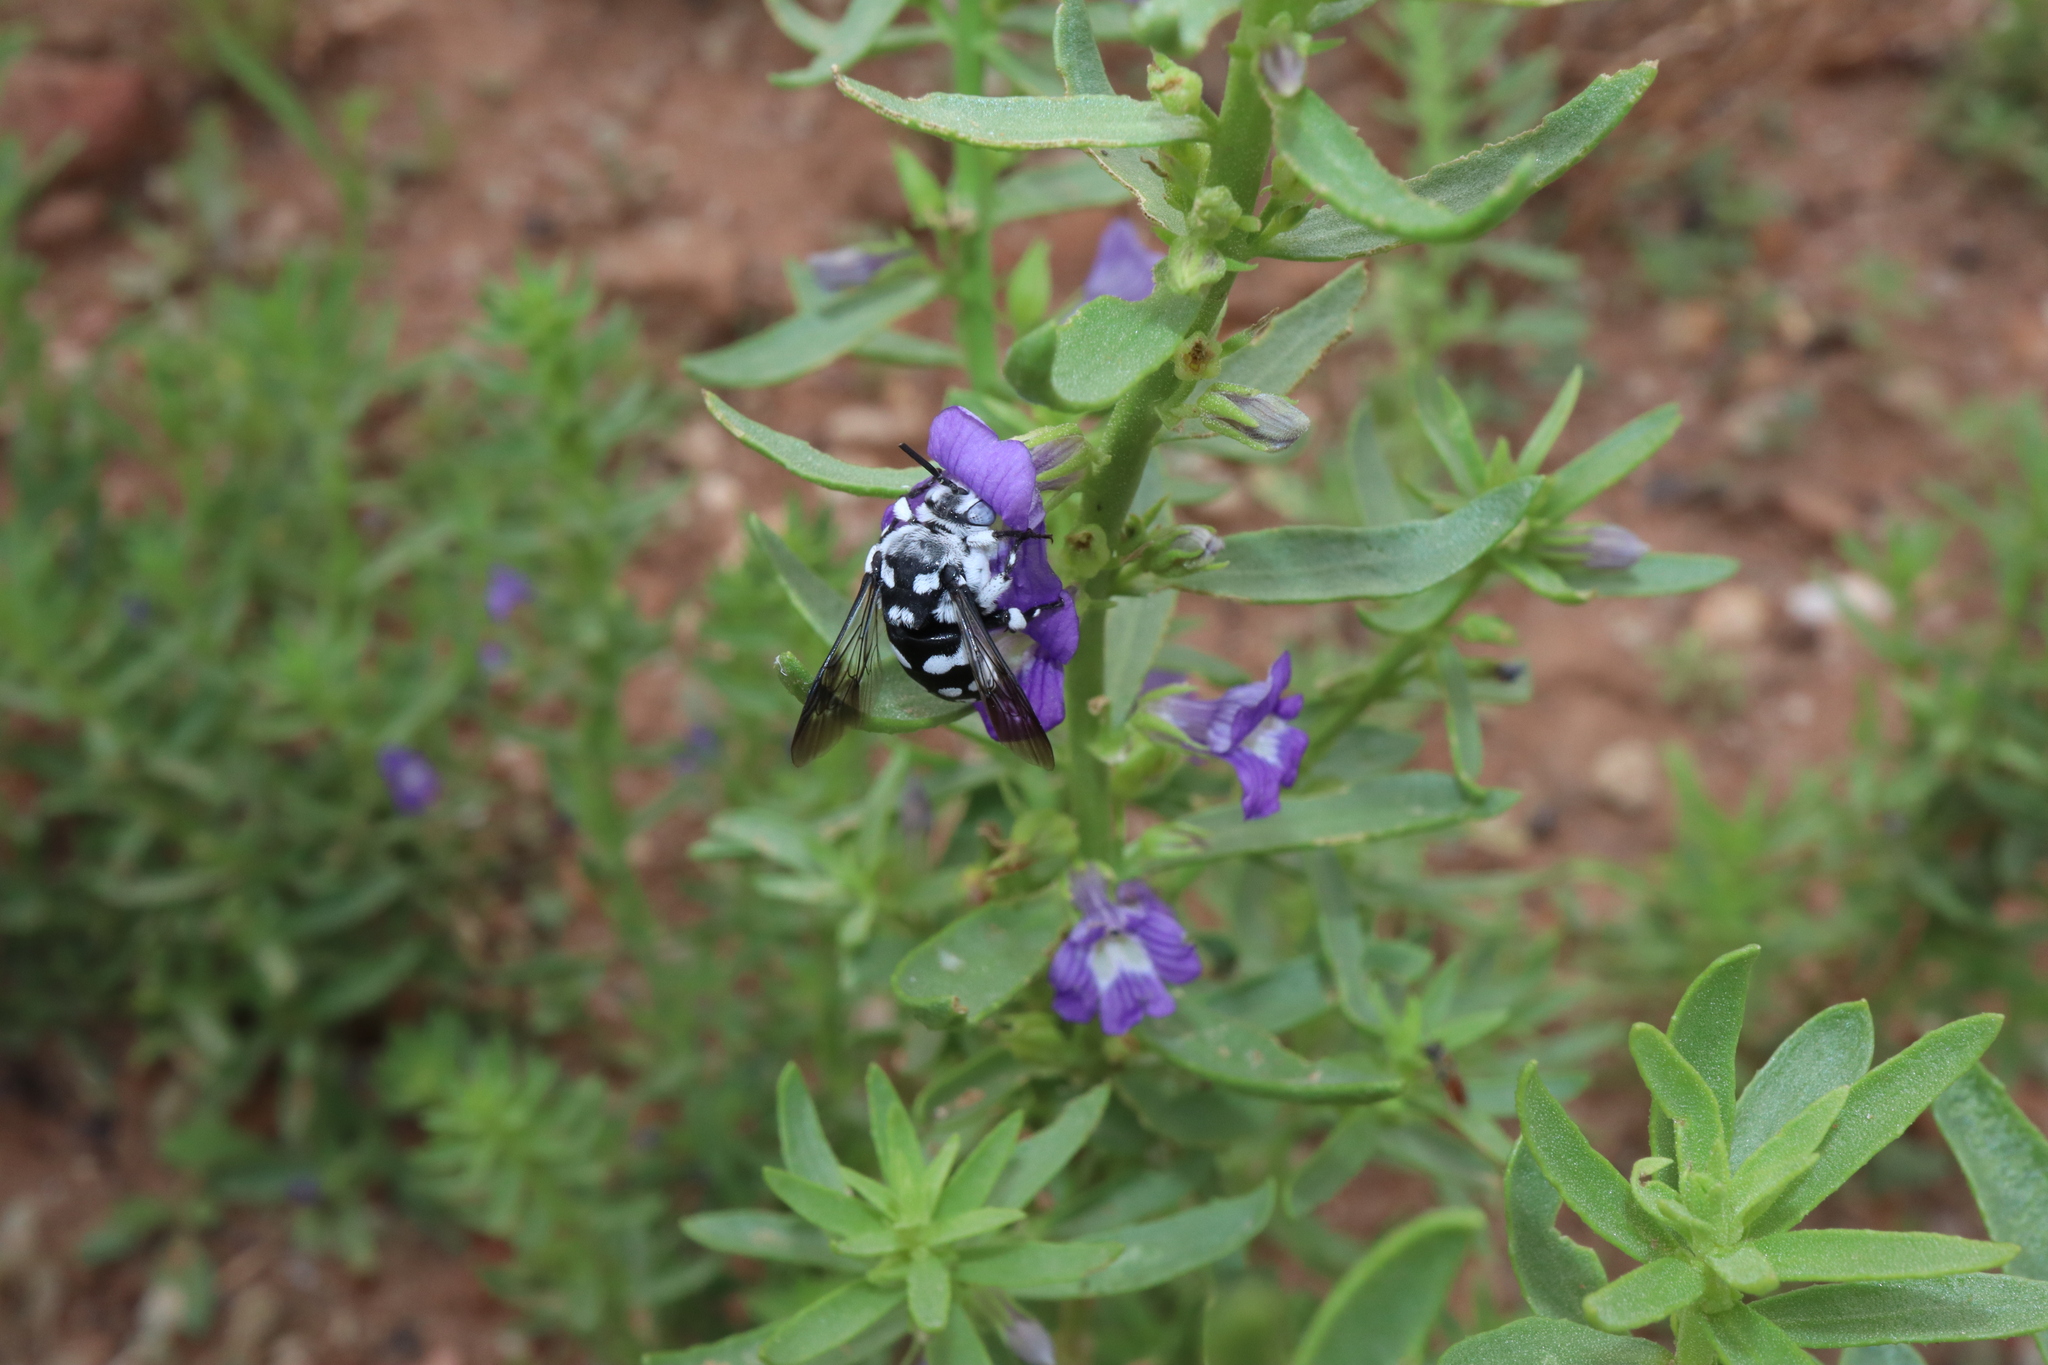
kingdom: Animalia
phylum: Arthropoda
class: Insecta
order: Hymenoptera
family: Apidae
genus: Thyreus
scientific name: Thyreus waroonensis
